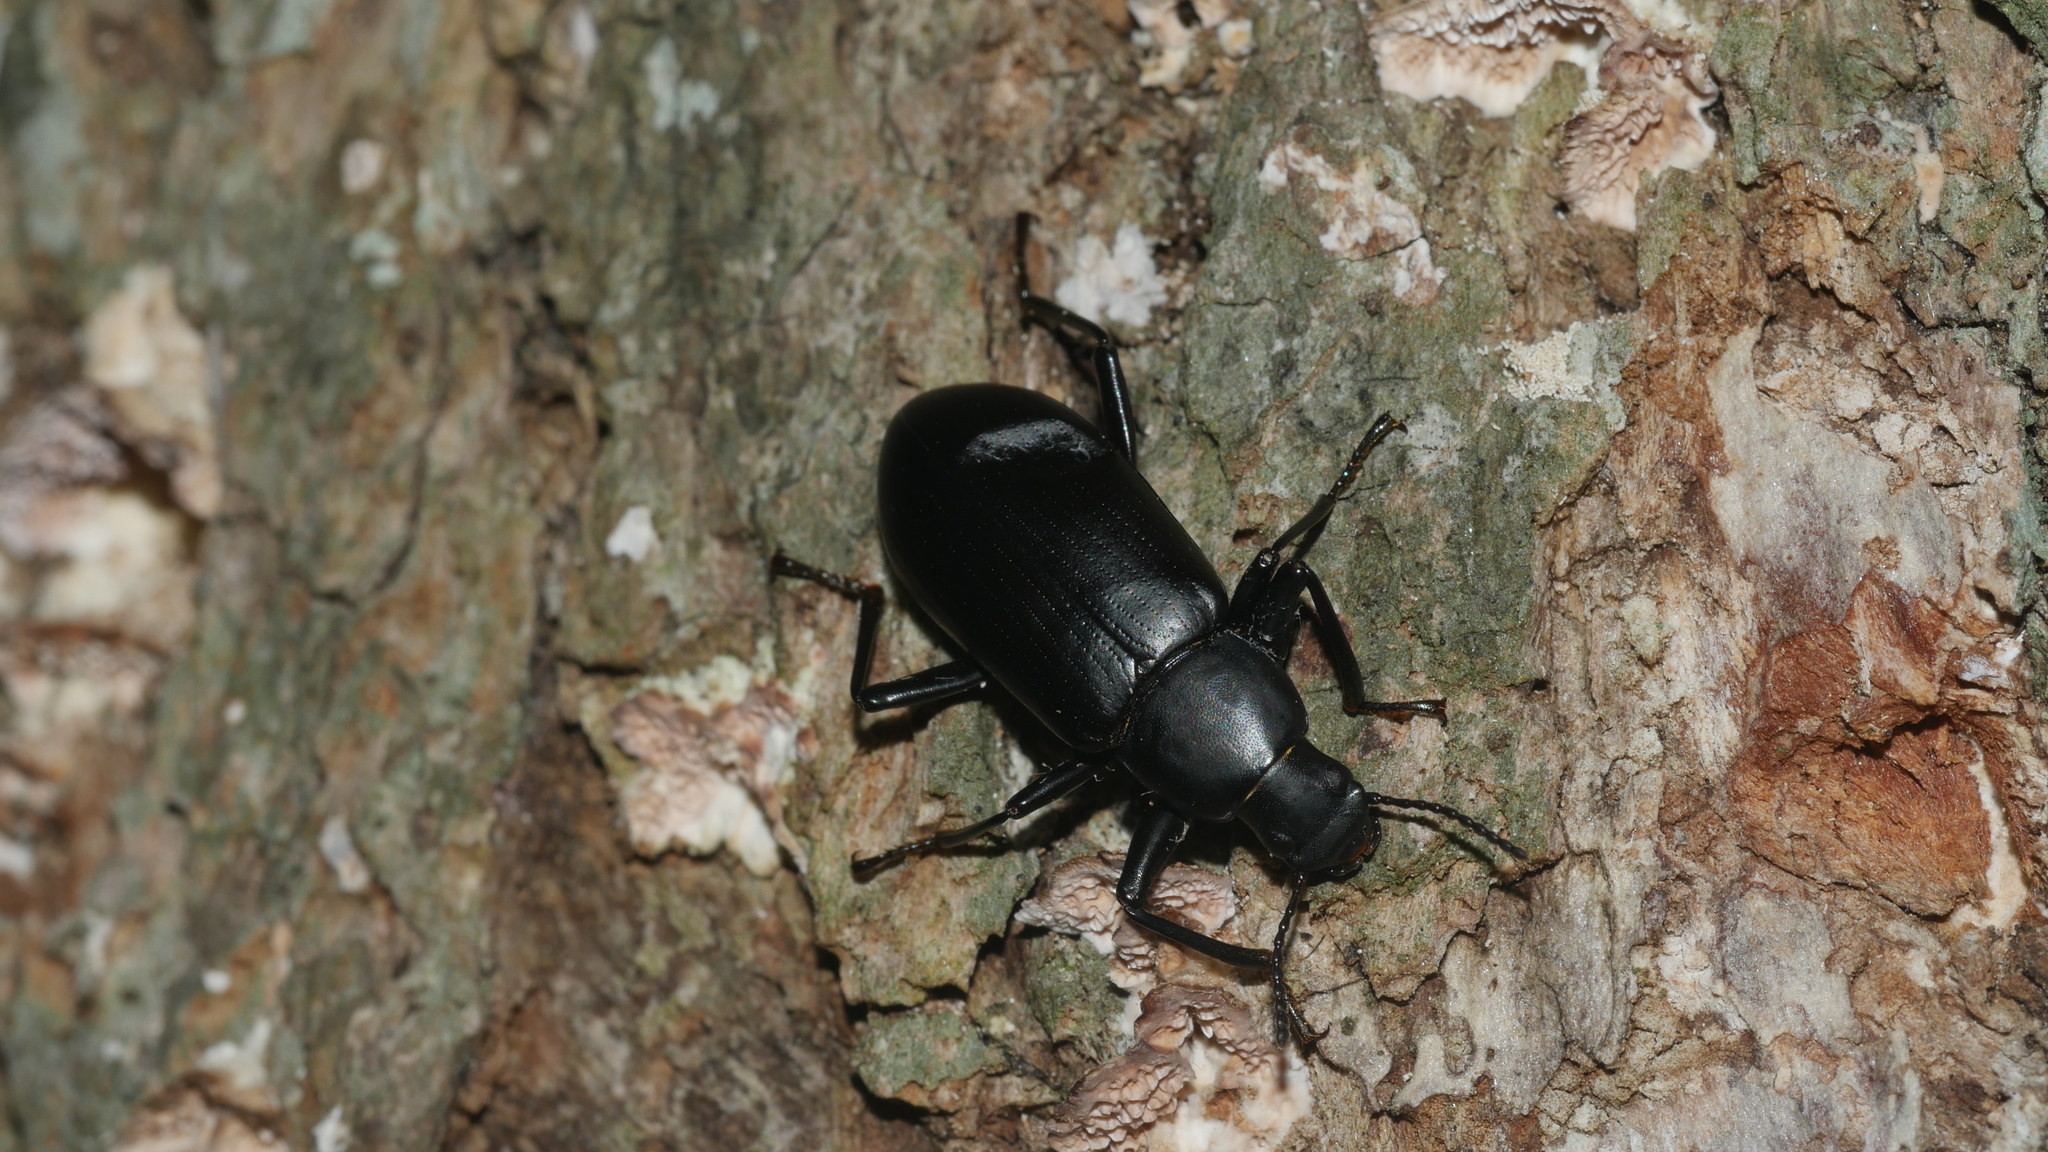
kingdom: Animalia
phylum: Arthropoda
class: Insecta
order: Coleoptera
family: Tenebrionidae
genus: Alobates
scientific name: Alobates
